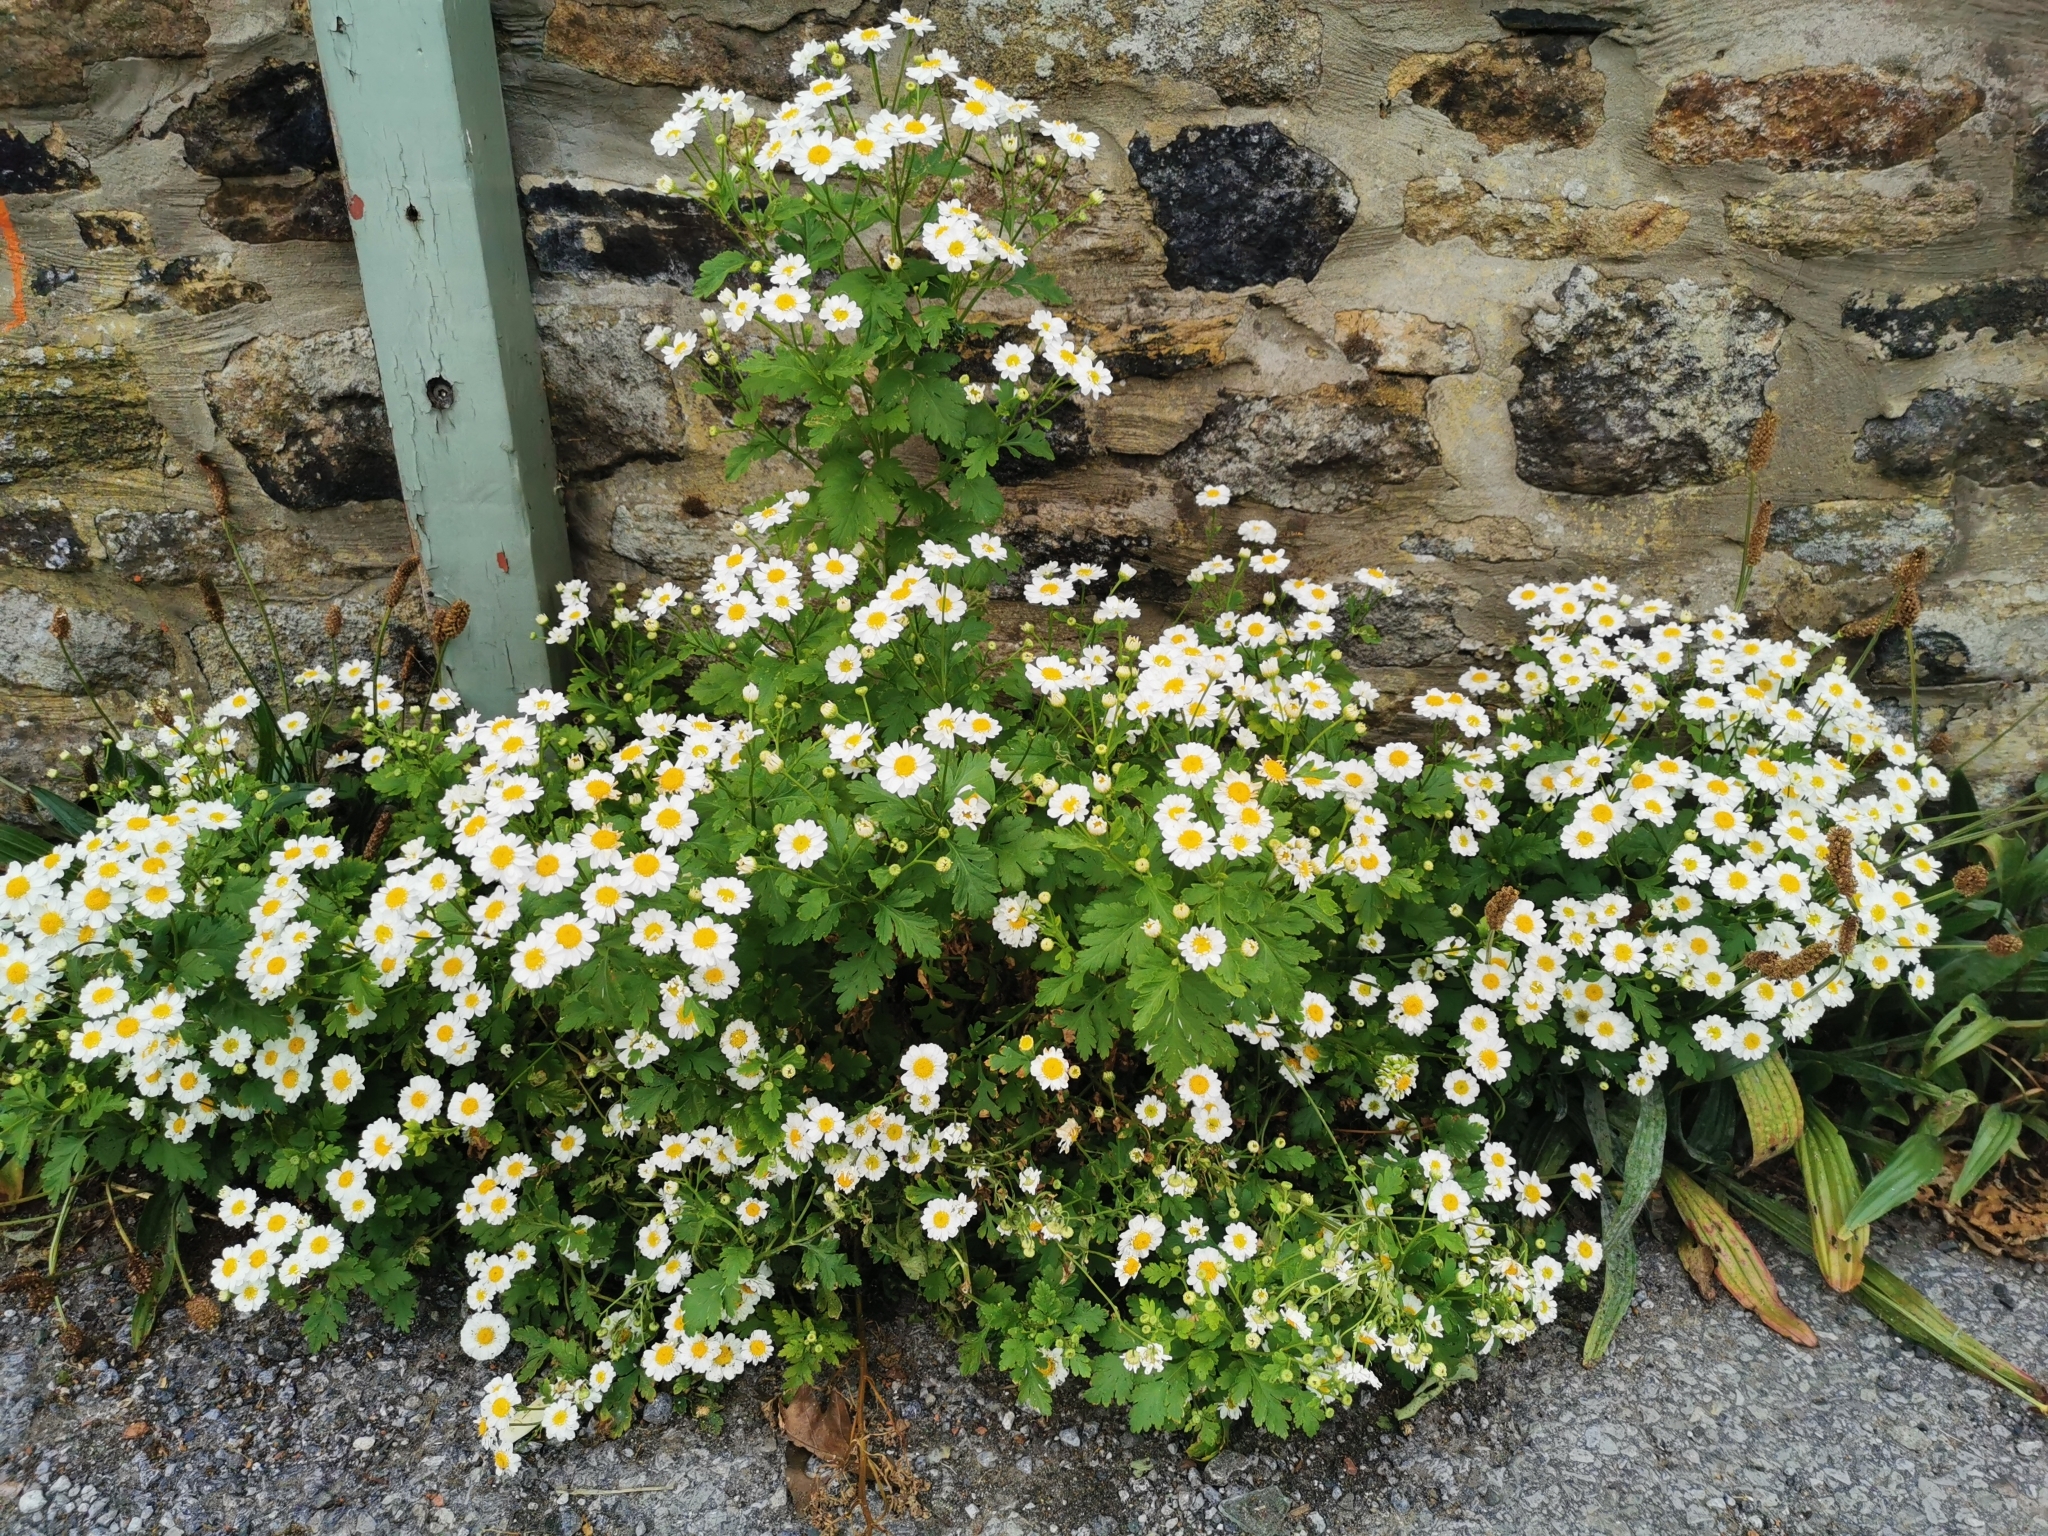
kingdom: Plantae
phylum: Tracheophyta
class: Magnoliopsida
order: Asterales
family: Asteraceae
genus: Tanacetum
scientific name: Tanacetum parthenium
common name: Feverfew
